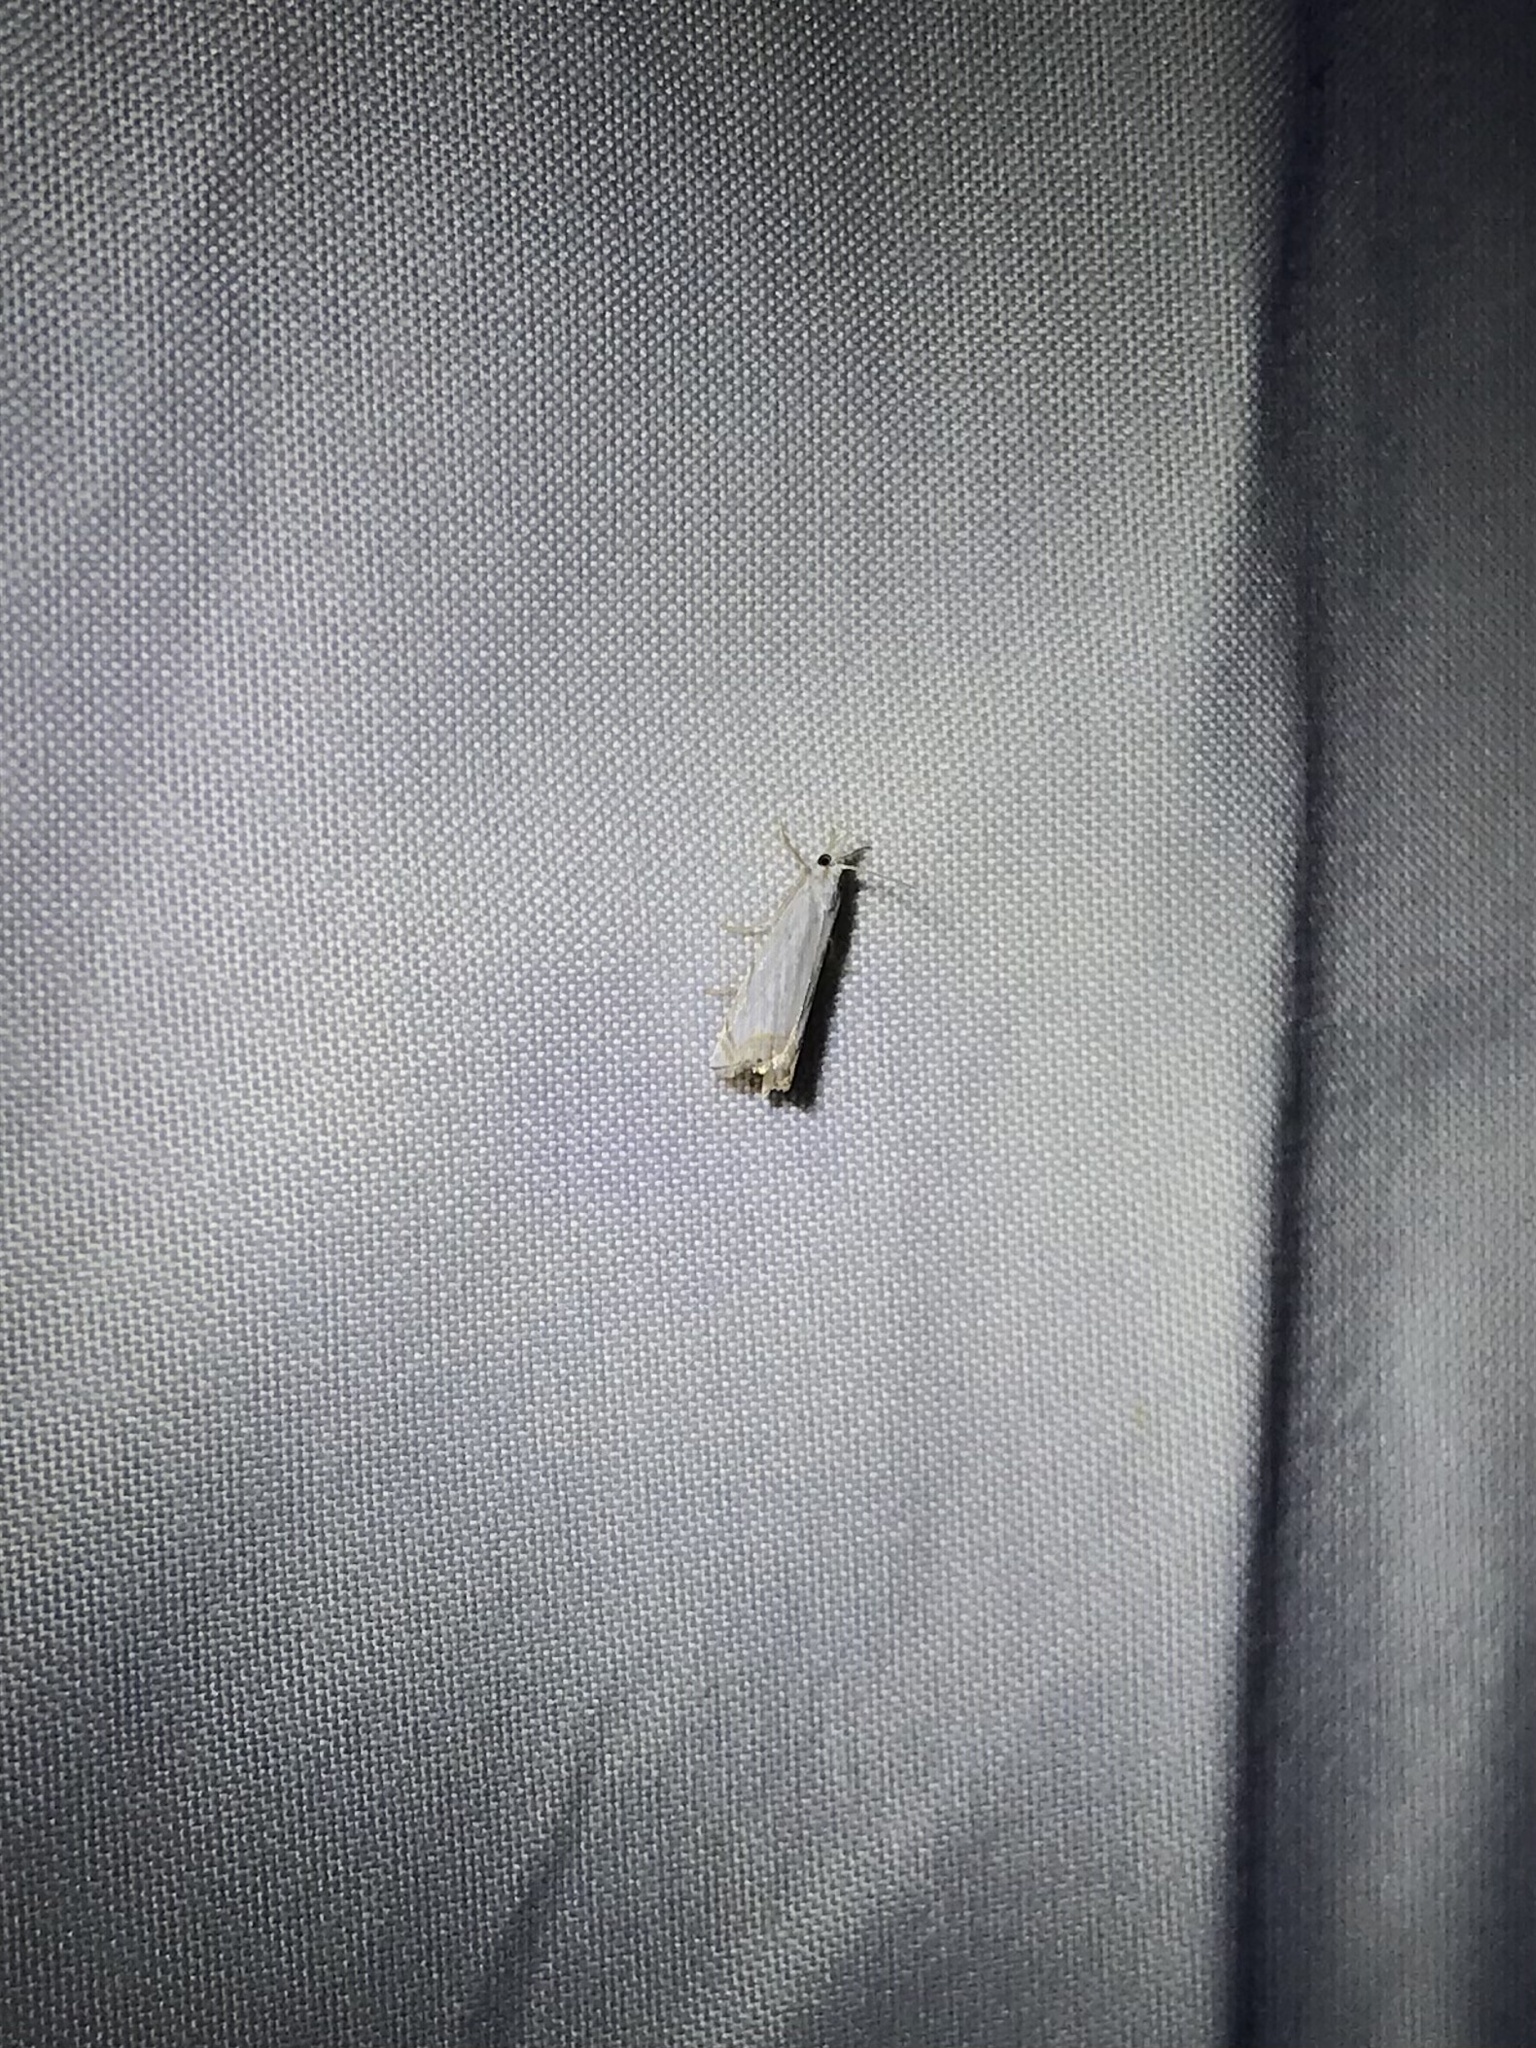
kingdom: Animalia
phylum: Arthropoda
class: Insecta
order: Lepidoptera
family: Crambidae
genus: Crambus
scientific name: Crambus albellus
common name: Small white grass-veneer
